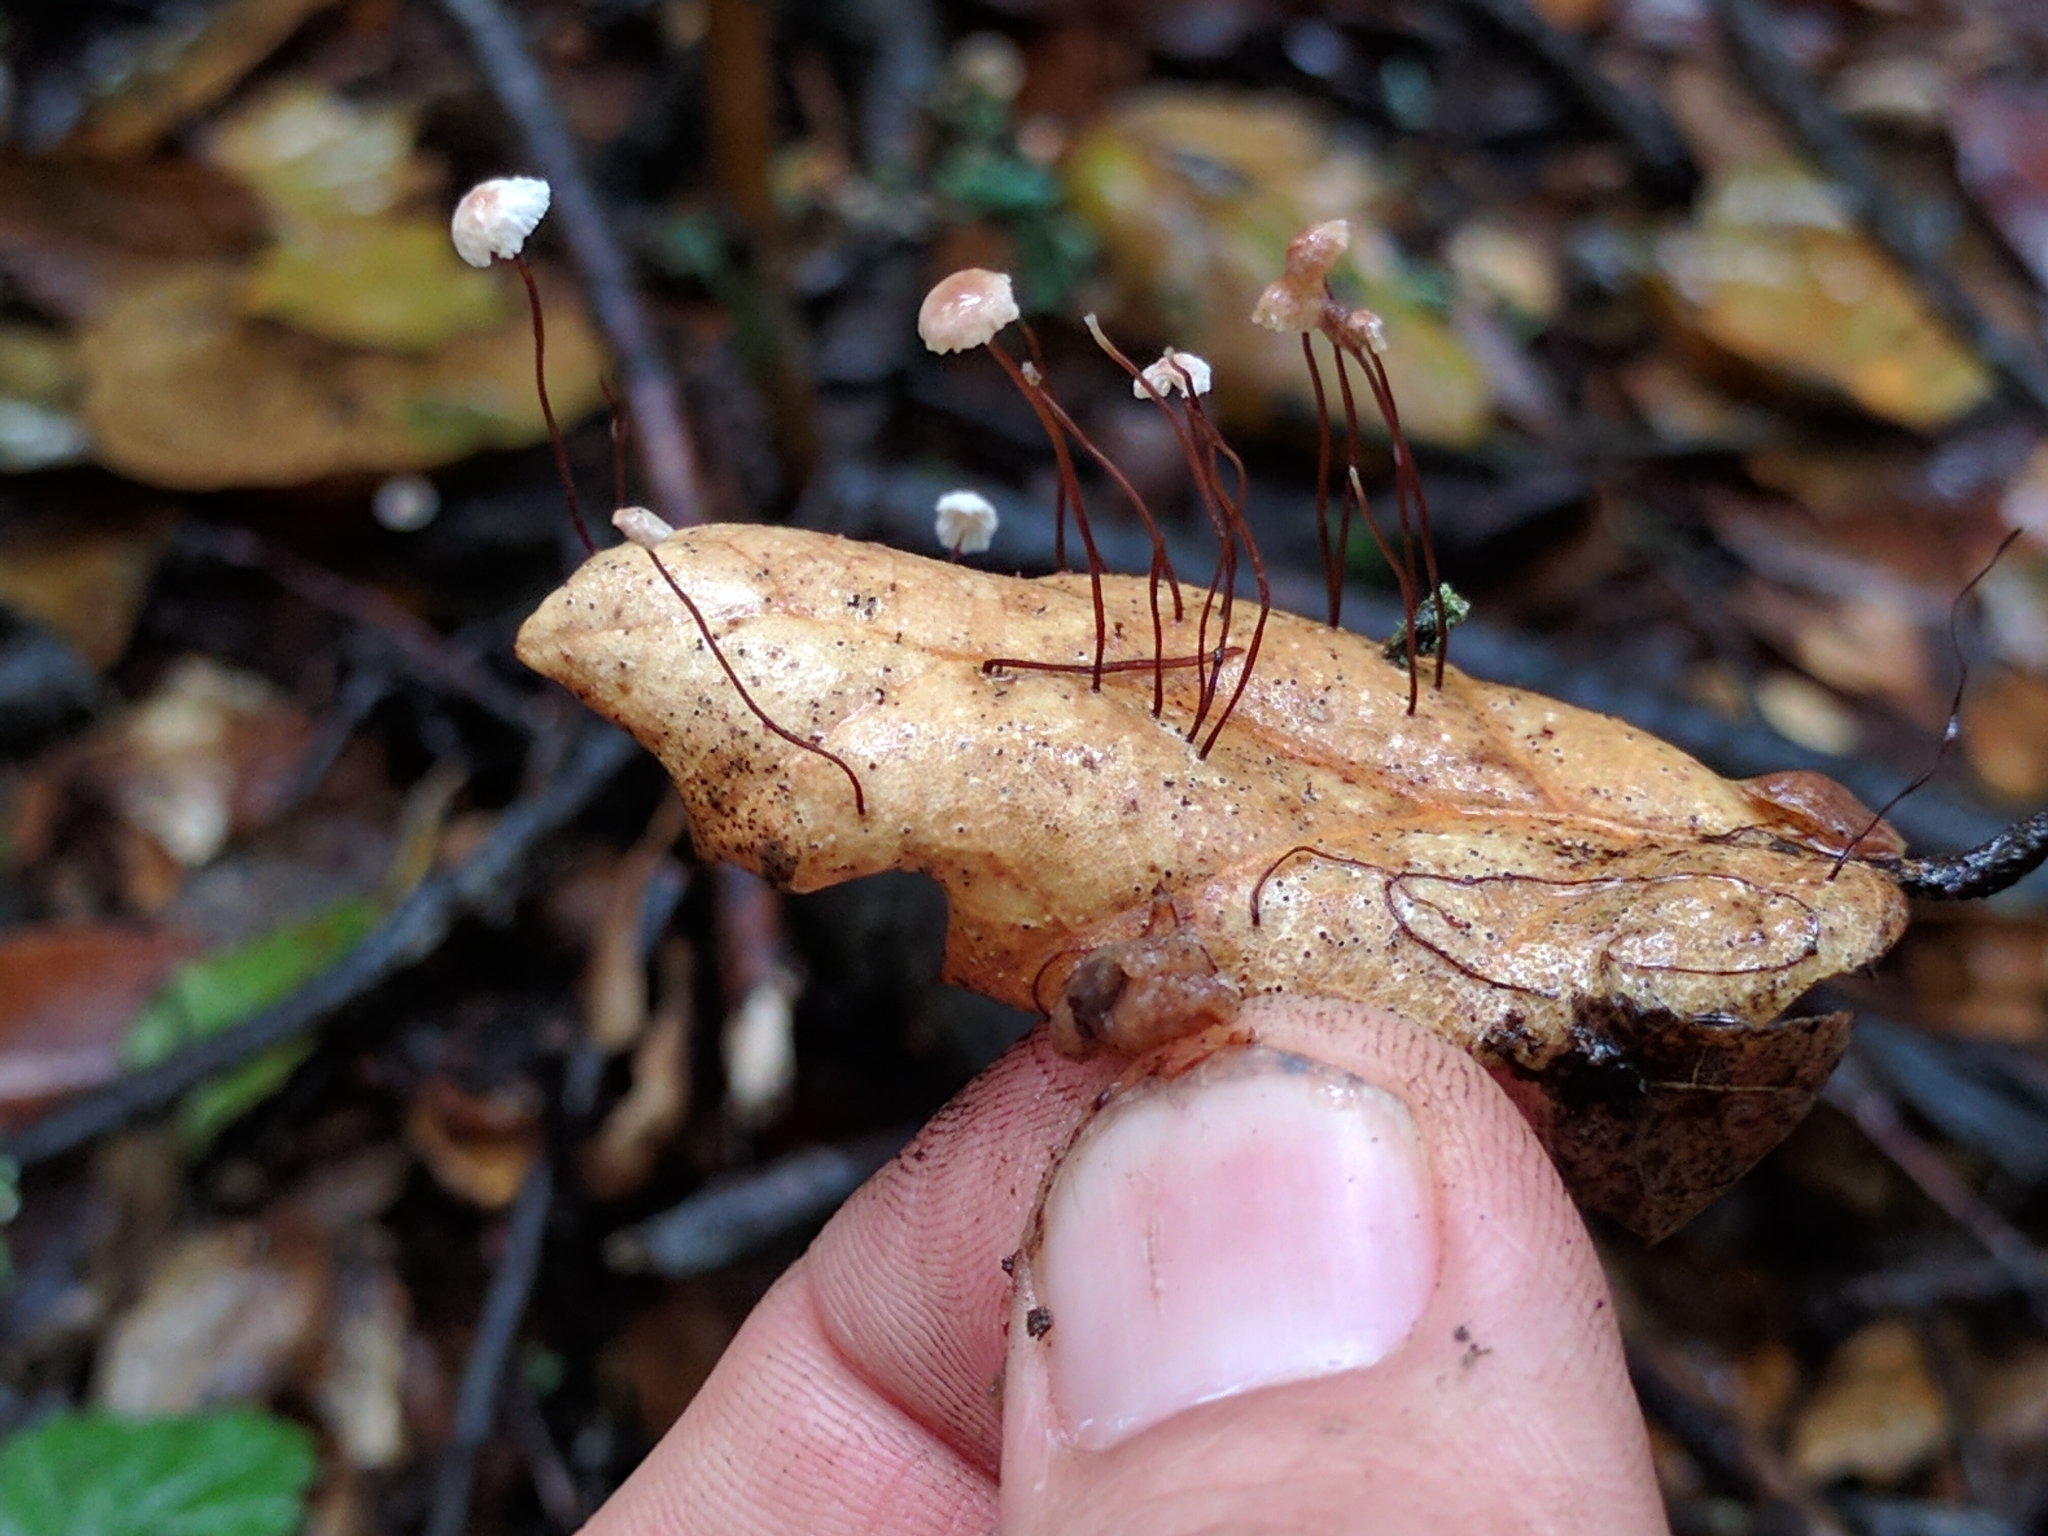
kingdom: Fungi
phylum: Basidiomycota
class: Agaricomycetes
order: Agaricales
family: Omphalotaceae
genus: Collybiopsis
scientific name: Collybiopsis quercophila
